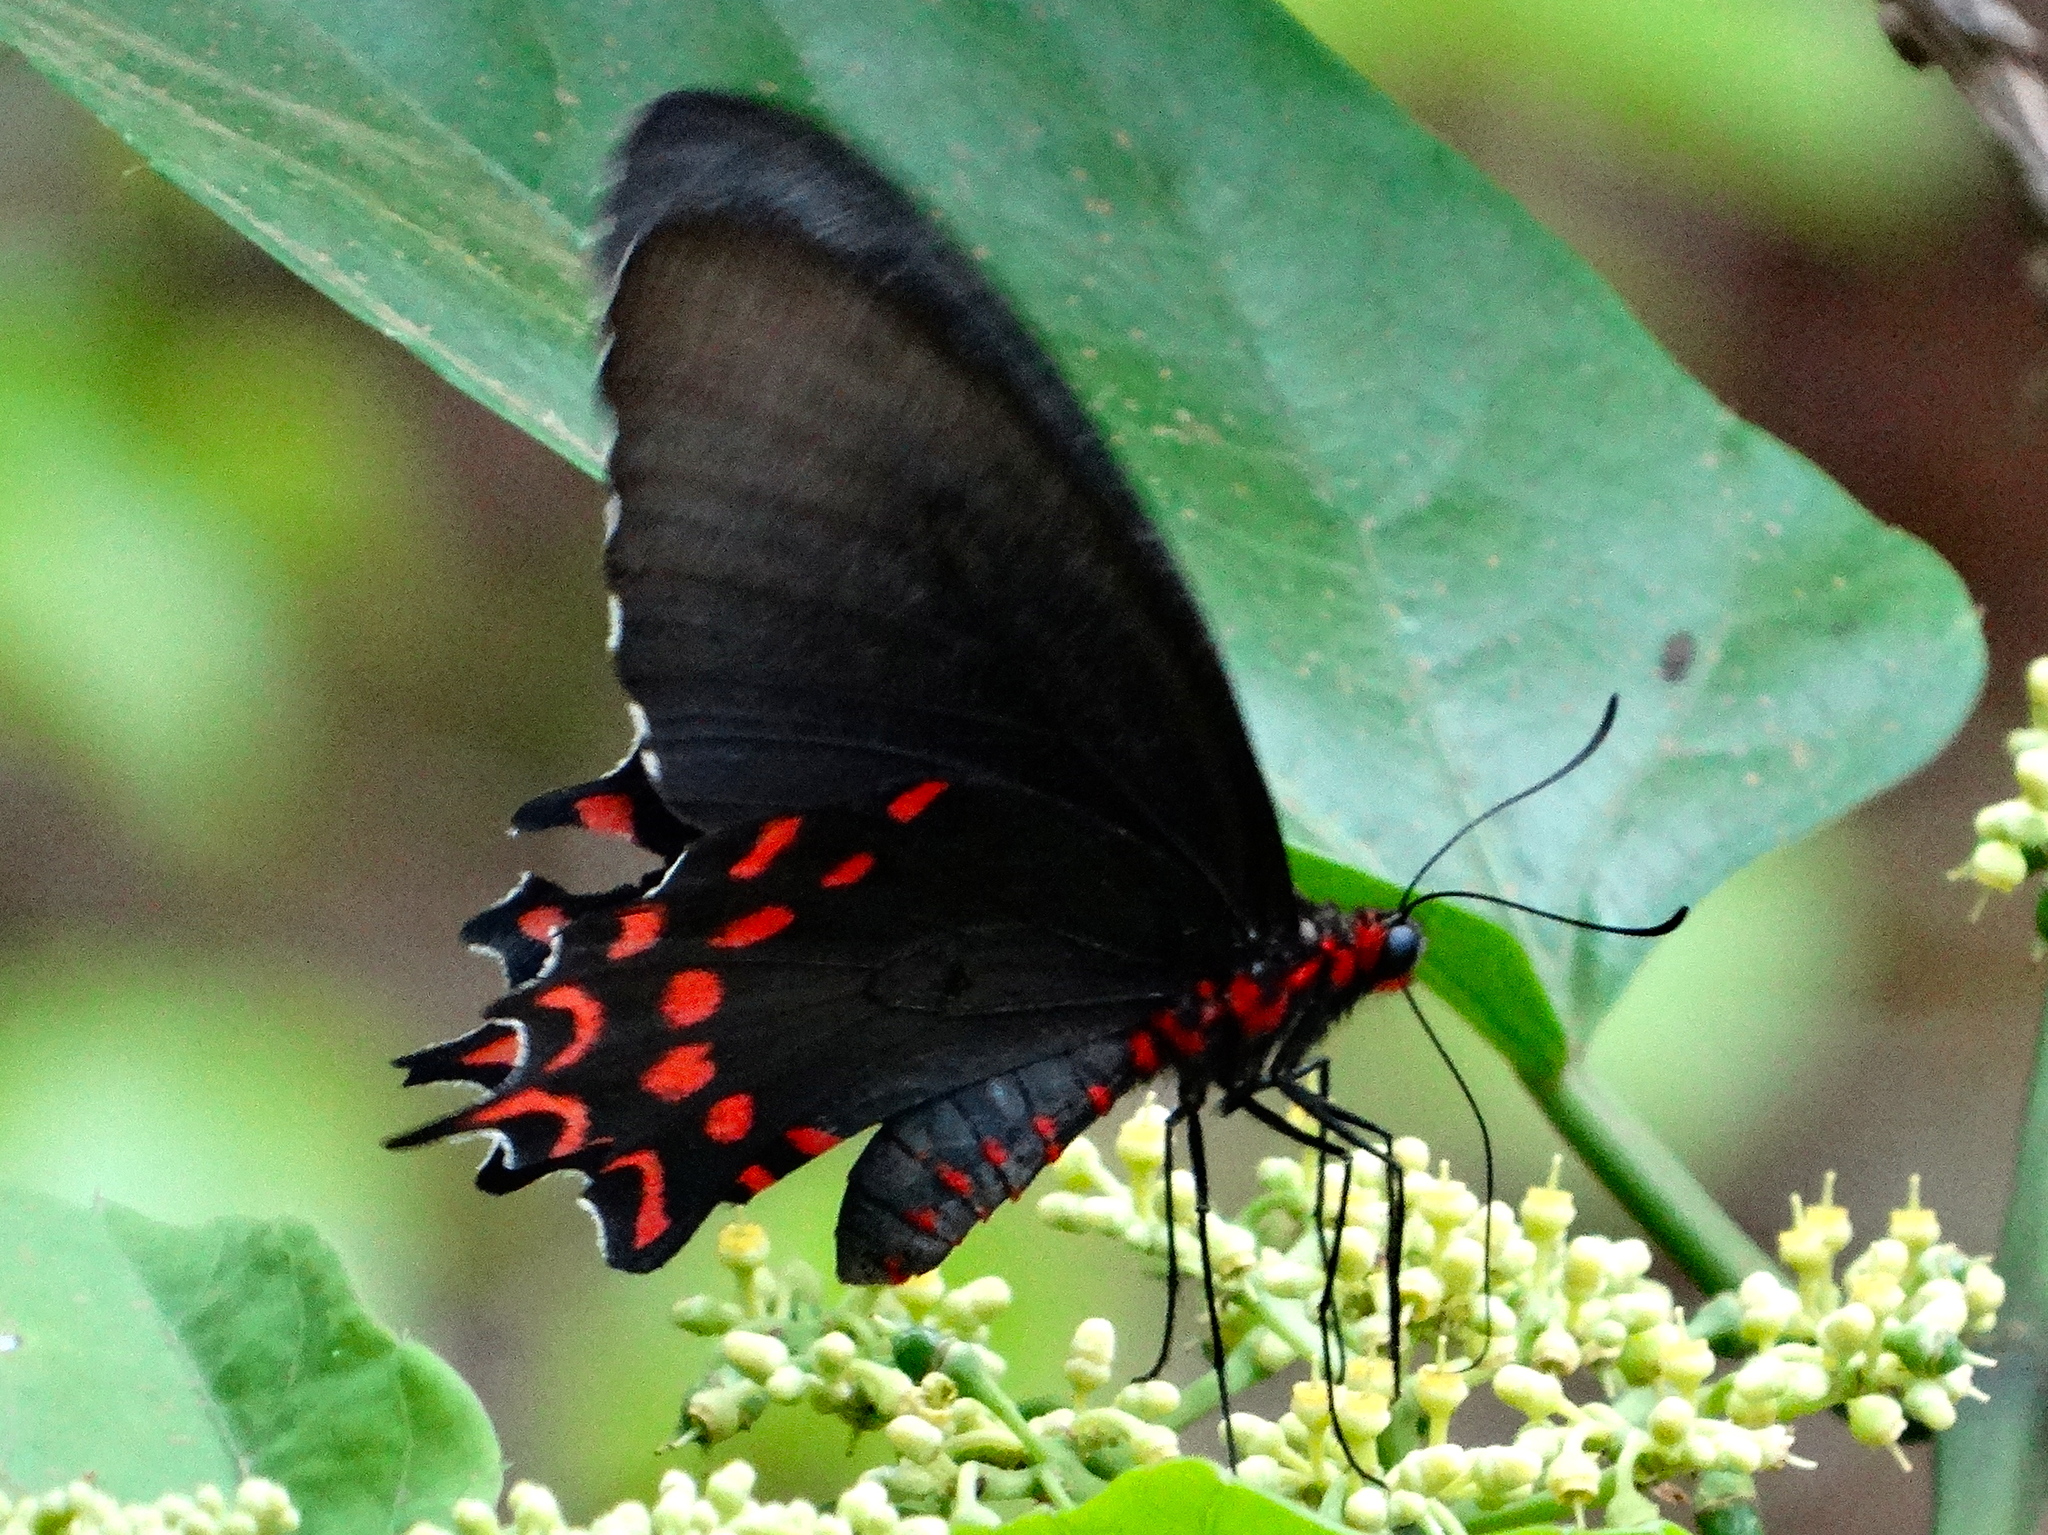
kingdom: Animalia
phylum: Arthropoda
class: Insecta
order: Lepidoptera
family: Papilionidae
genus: Parides
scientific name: Parides photinus
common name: Pink-spotted cattleheart
